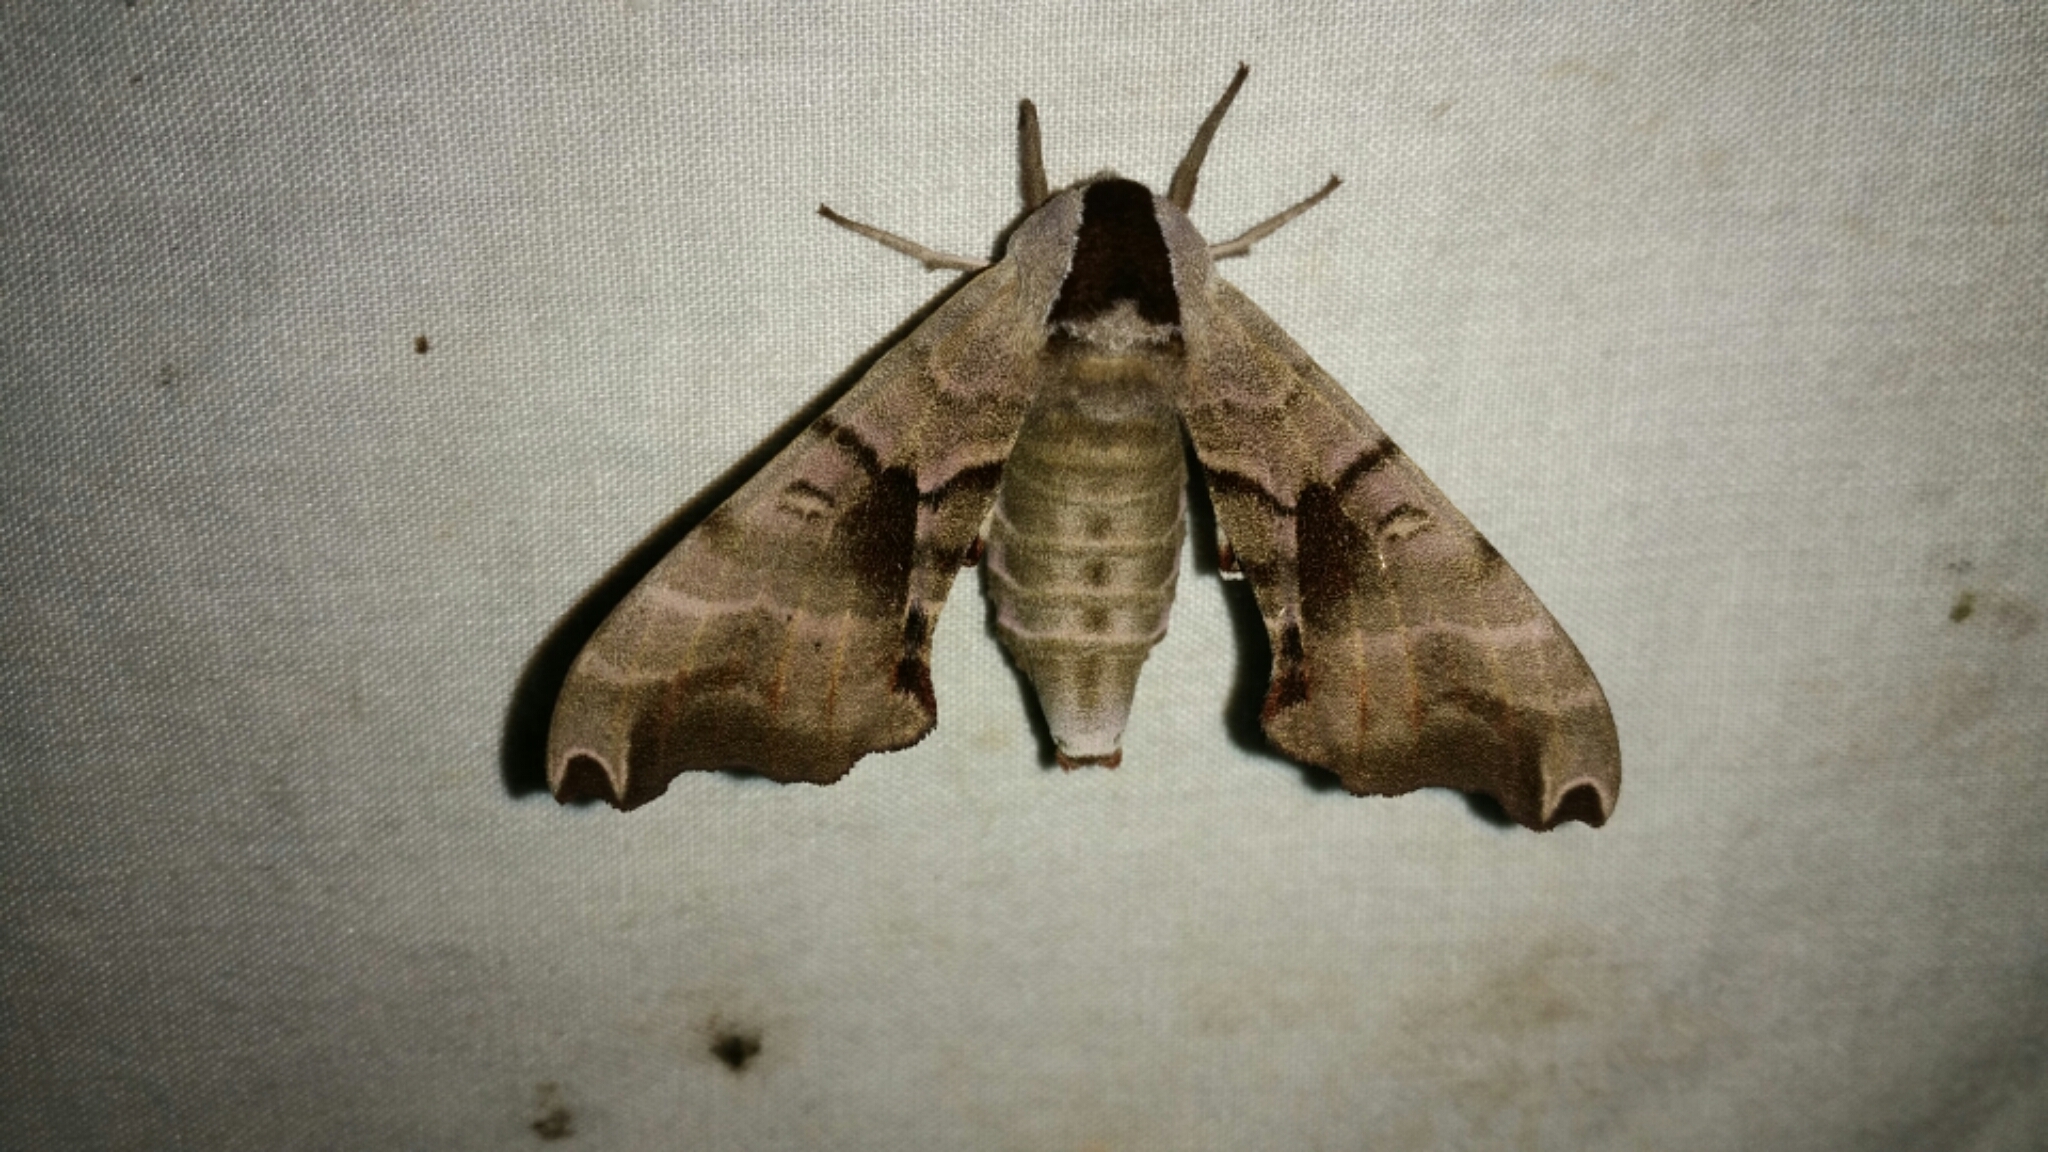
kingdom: Animalia
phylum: Arthropoda
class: Insecta
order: Lepidoptera
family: Sphingidae
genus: Smerinthus
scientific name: Smerinthus jamaicensis
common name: Twin spotted sphinx
